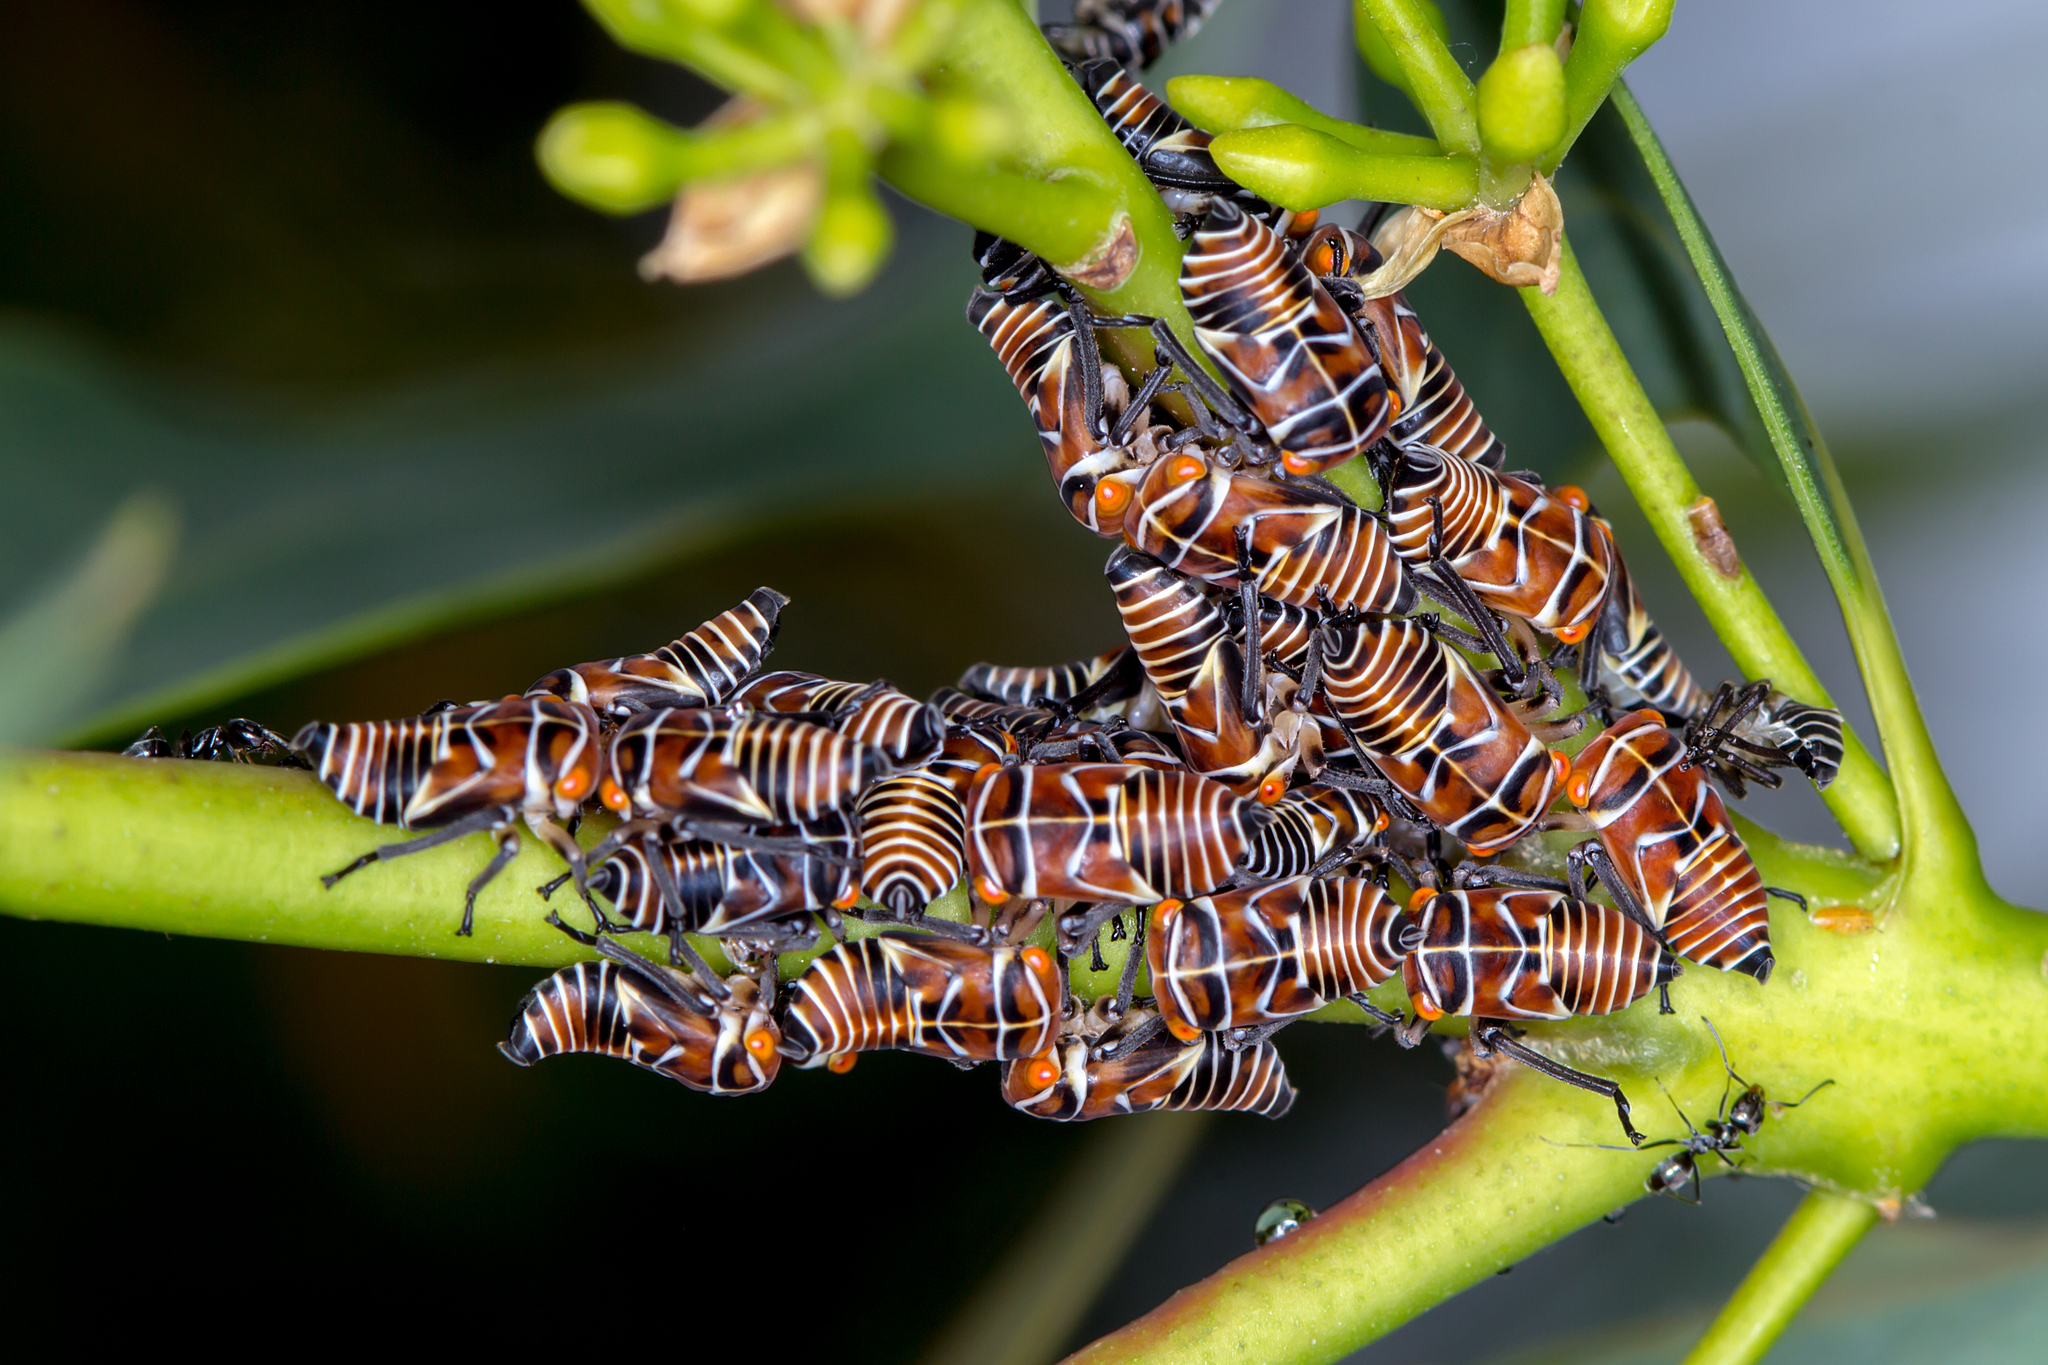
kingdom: Animalia
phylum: Arthropoda
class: Insecta
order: Hemiptera
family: Cicadellidae
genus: Eurymeloides
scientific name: Eurymeloides punctata
